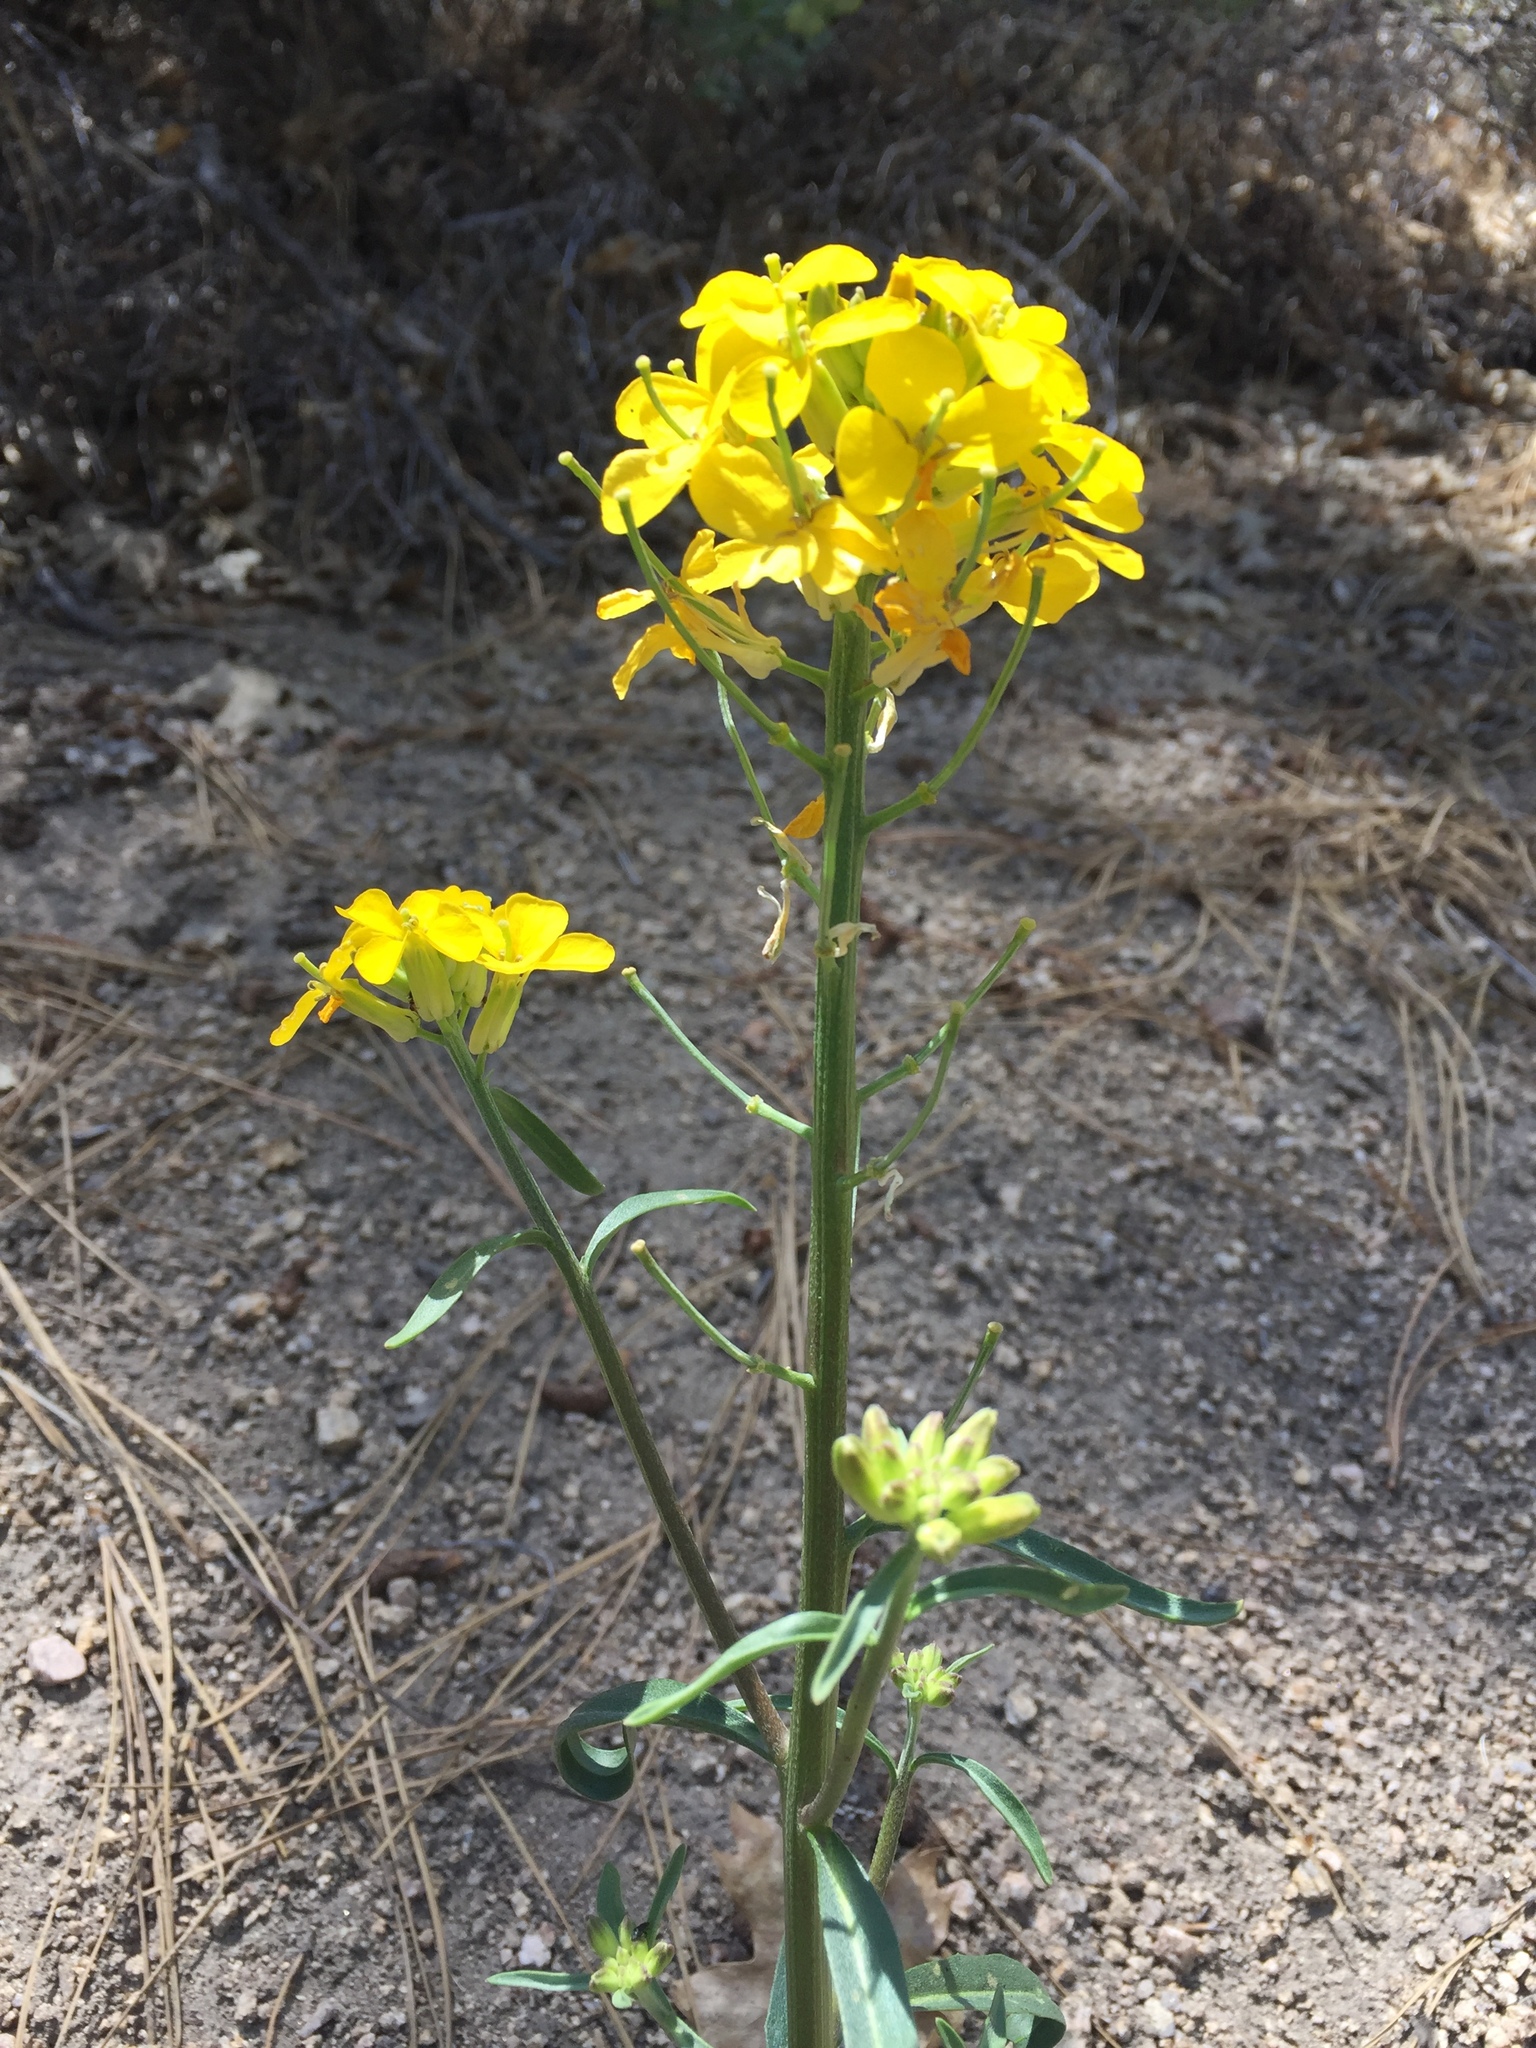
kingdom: Plantae
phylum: Tracheophyta
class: Magnoliopsida
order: Brassicales
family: Brassicaceae
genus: Erysimum
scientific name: Erysimum capitatum
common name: Western wallflower
